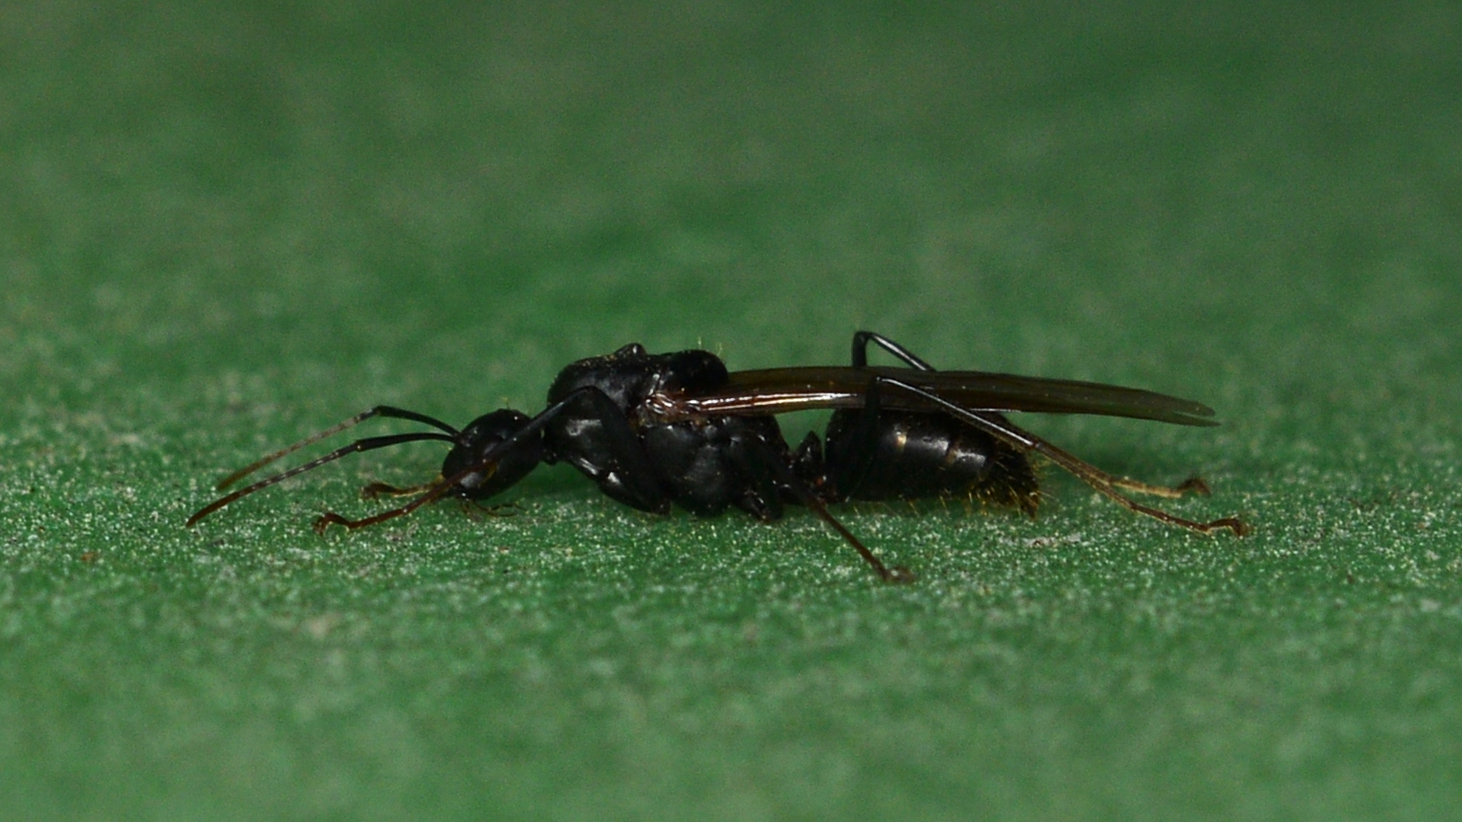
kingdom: Animalia
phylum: Arthropoda
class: Insecta
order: Hymenoptera
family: Formicidae
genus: Camponotus
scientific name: Camponotus pennsylvanicus
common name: Black carpenter ant
